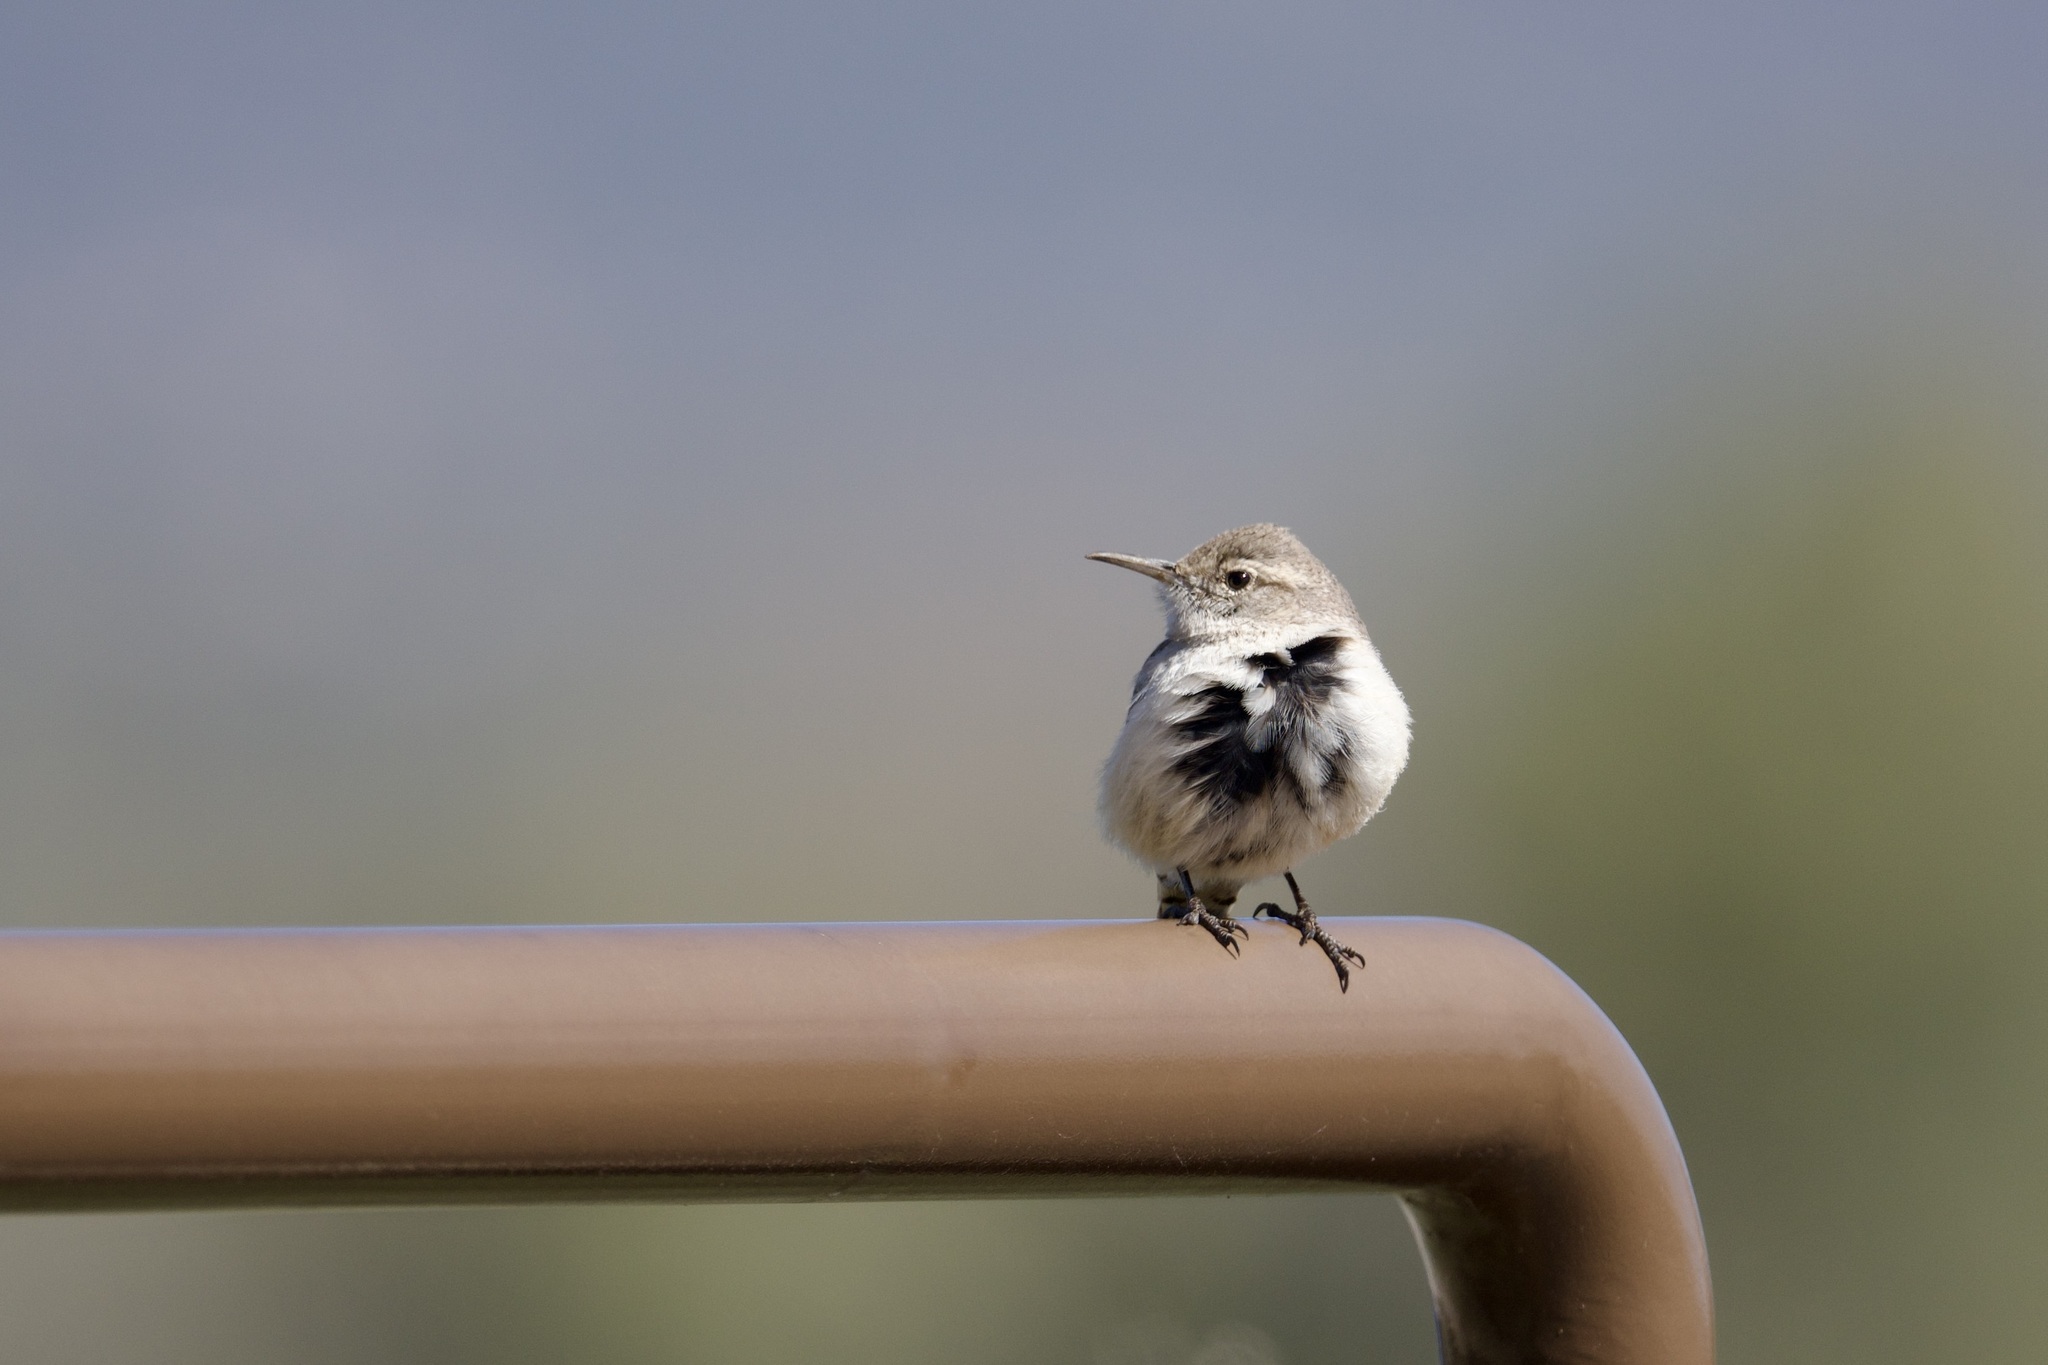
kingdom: Animalia
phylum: Chordata
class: Aves
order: Passeriformes
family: Troglodytidae
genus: Salpinctes
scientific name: Salpinctes obsoletus
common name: Rock wren
